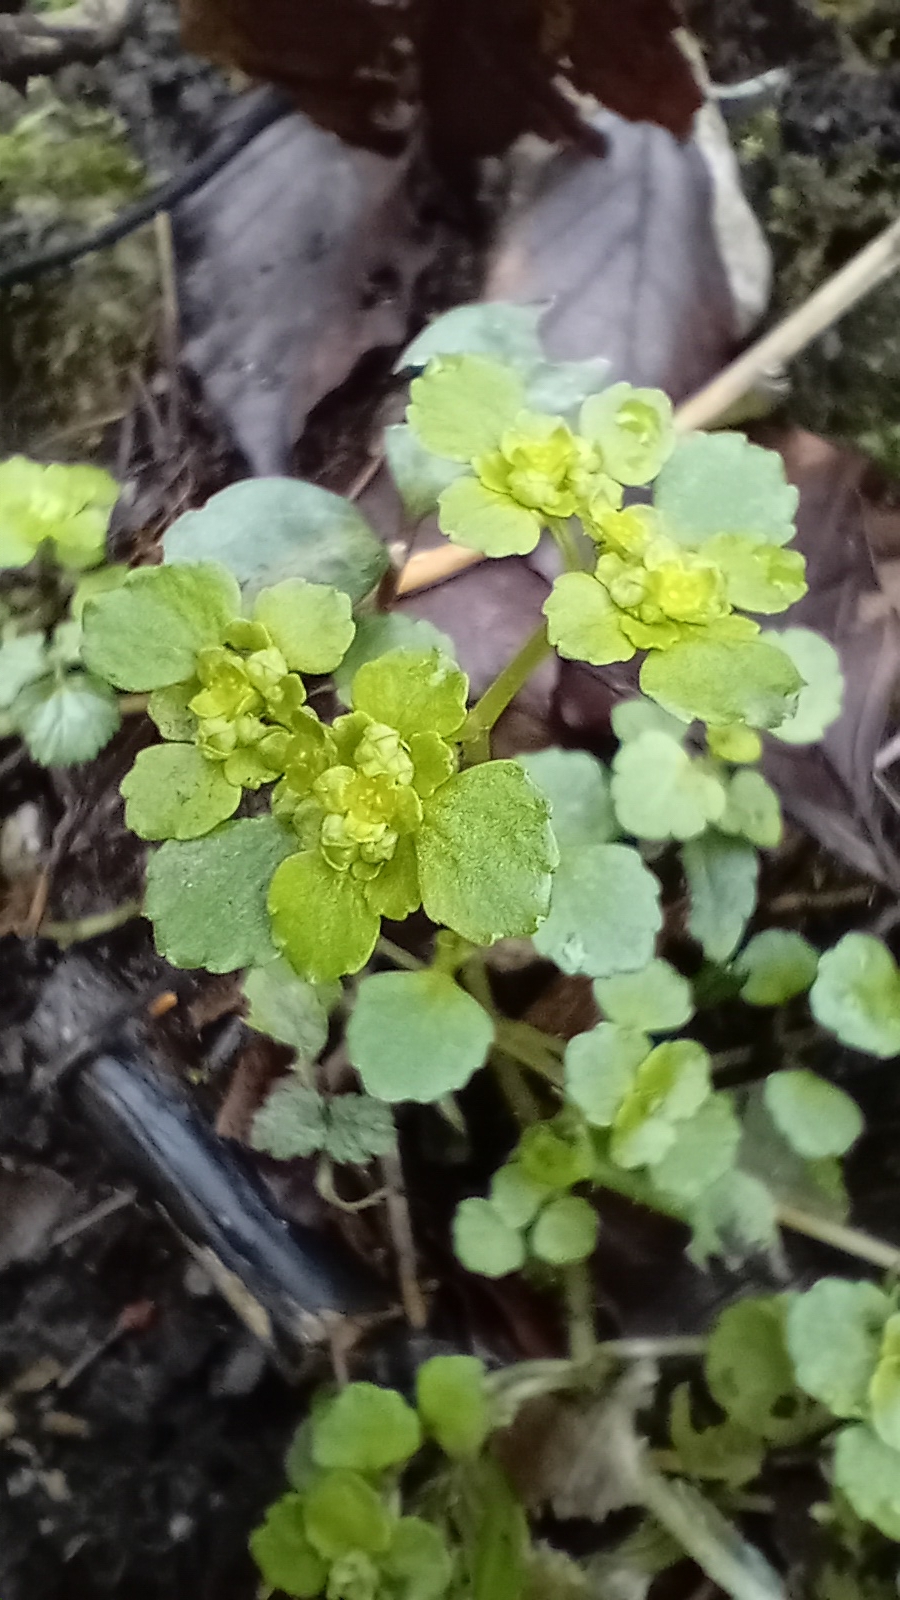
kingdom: Plantae
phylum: Tracheophyta
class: Magnoliopsida
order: Saxifragales
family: Saxifragaceae
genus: Chrysosplenium
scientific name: Chrysosplenium oppositifolium
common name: Opposite-leaved golden-saxifrage
